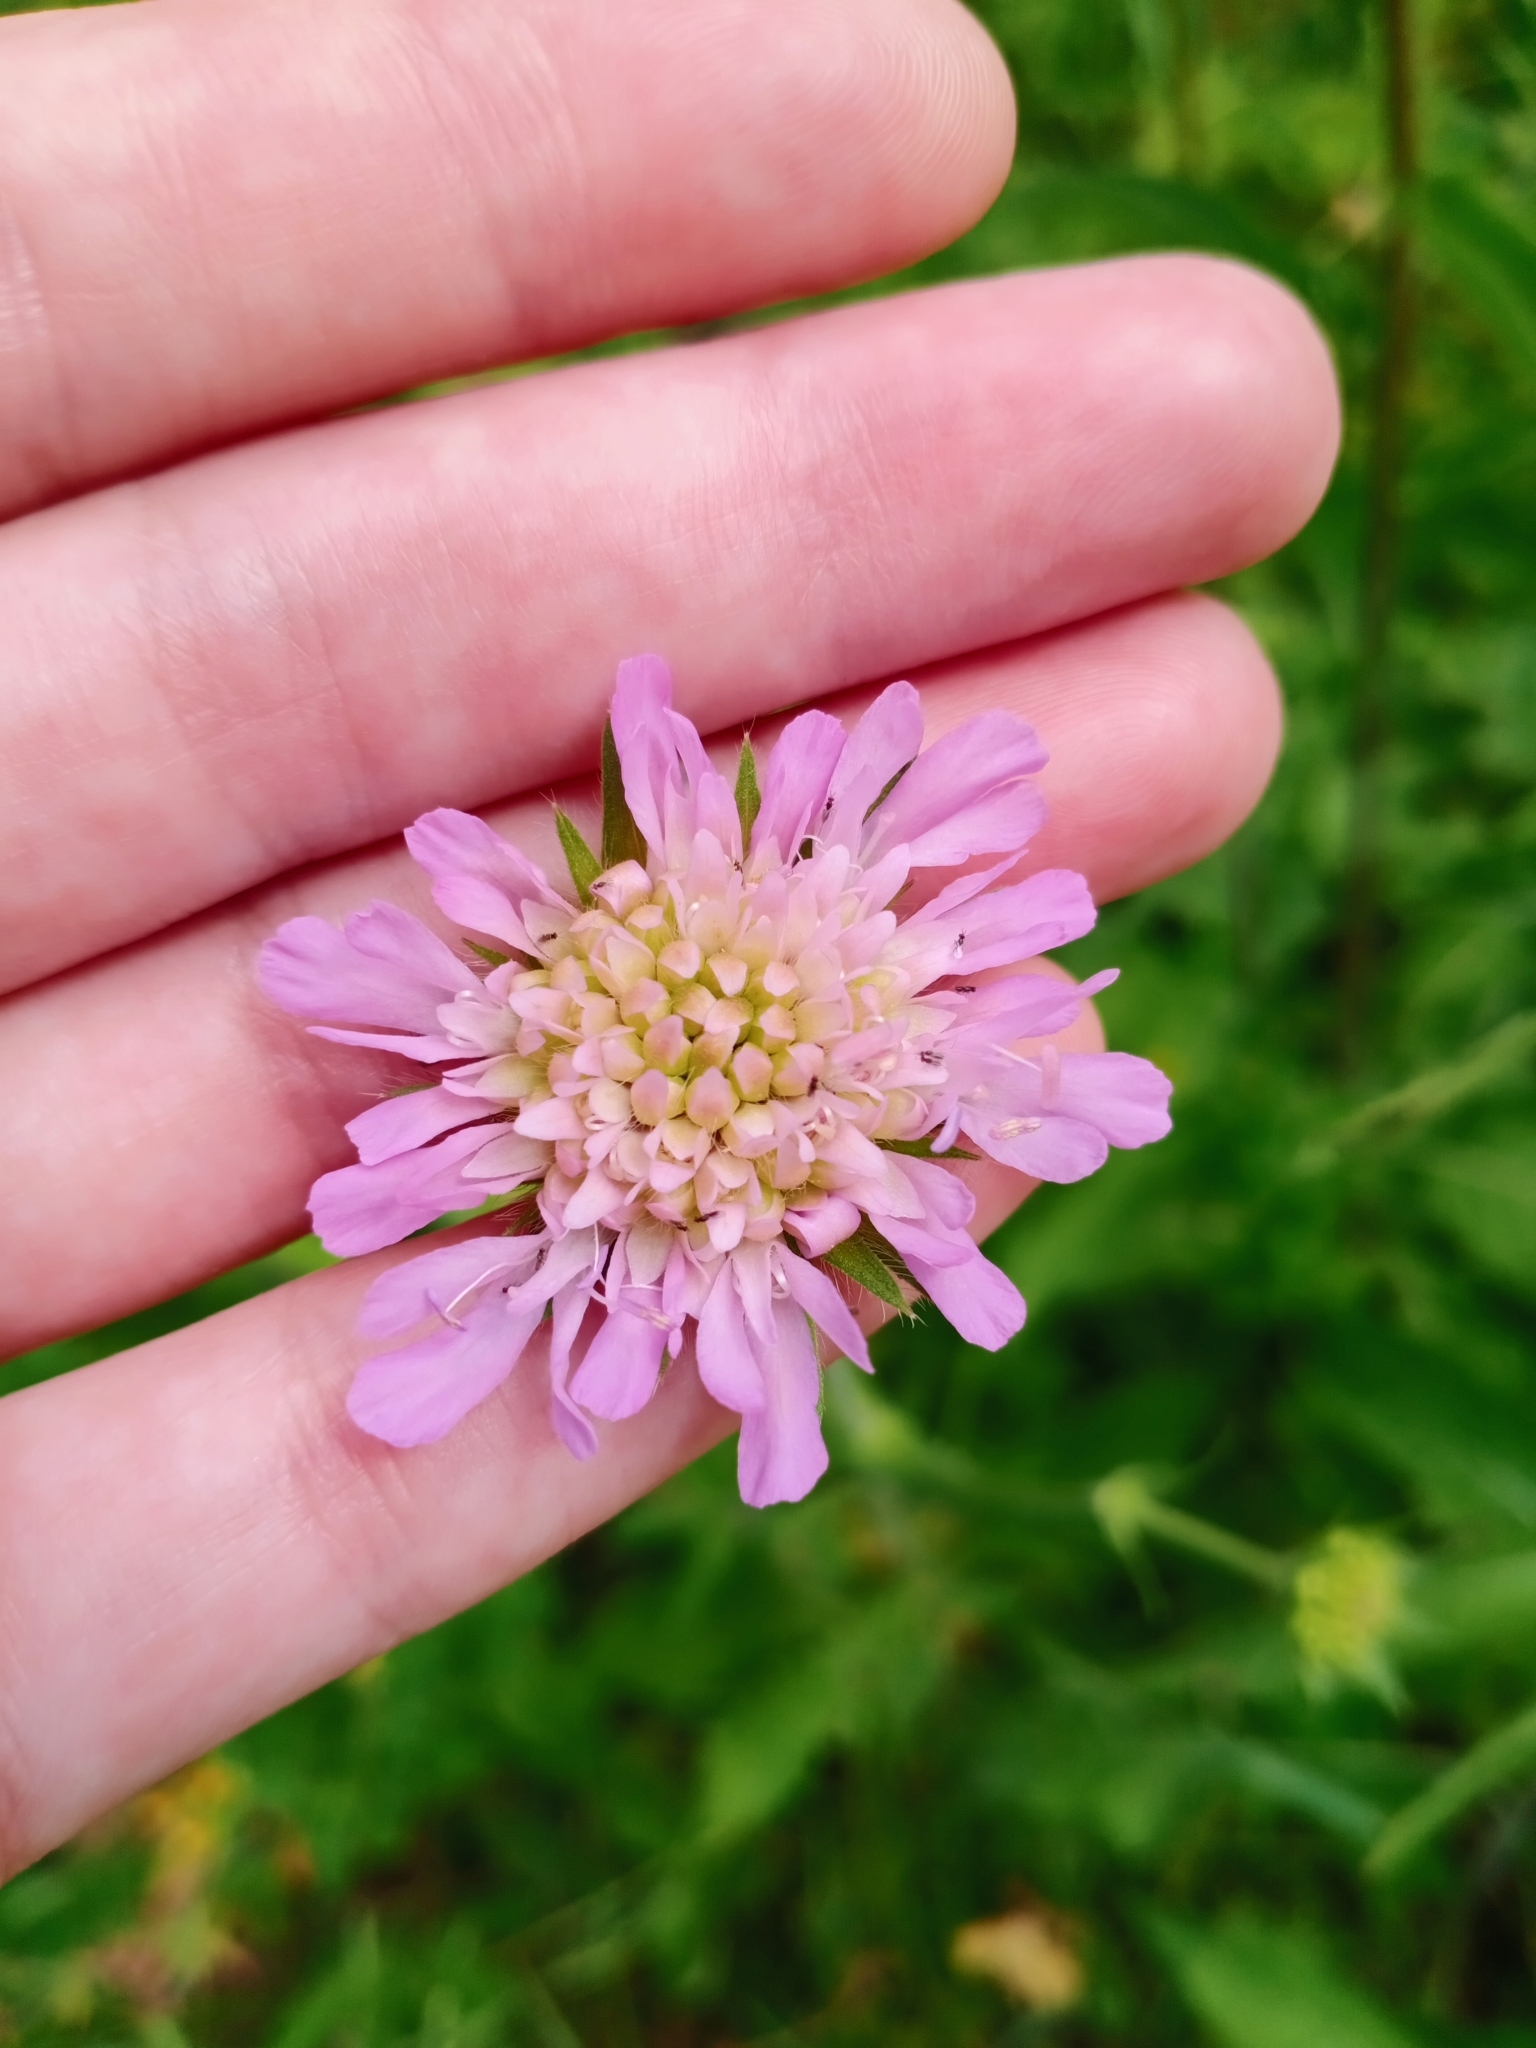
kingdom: Plantae
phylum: Tracheophyta
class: Magnoliopsida
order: Dipsacales
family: Caprifoliaceae
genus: Knautia
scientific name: Knautia arvensis
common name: Field scabiosa
